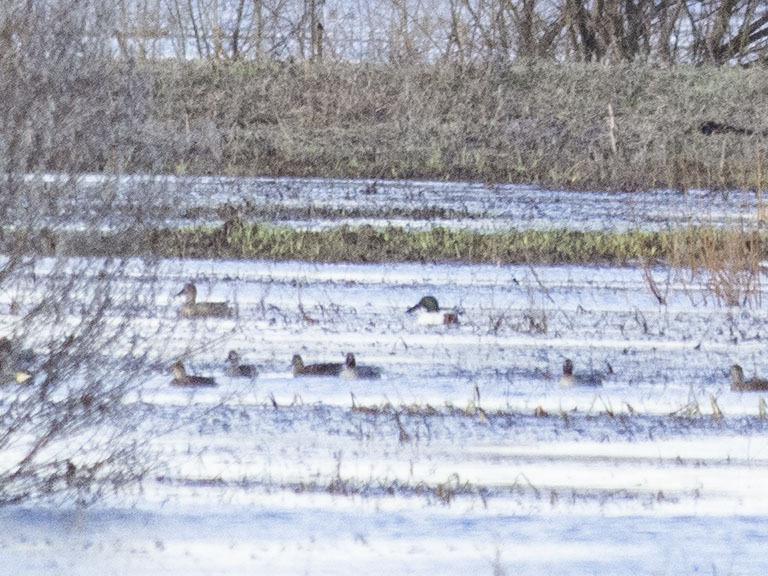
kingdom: Animalia
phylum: Chordata
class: Aves
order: Anseriformes
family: Anatidae
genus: Spatula
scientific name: Spatula clypeata
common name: Northern shoveler
